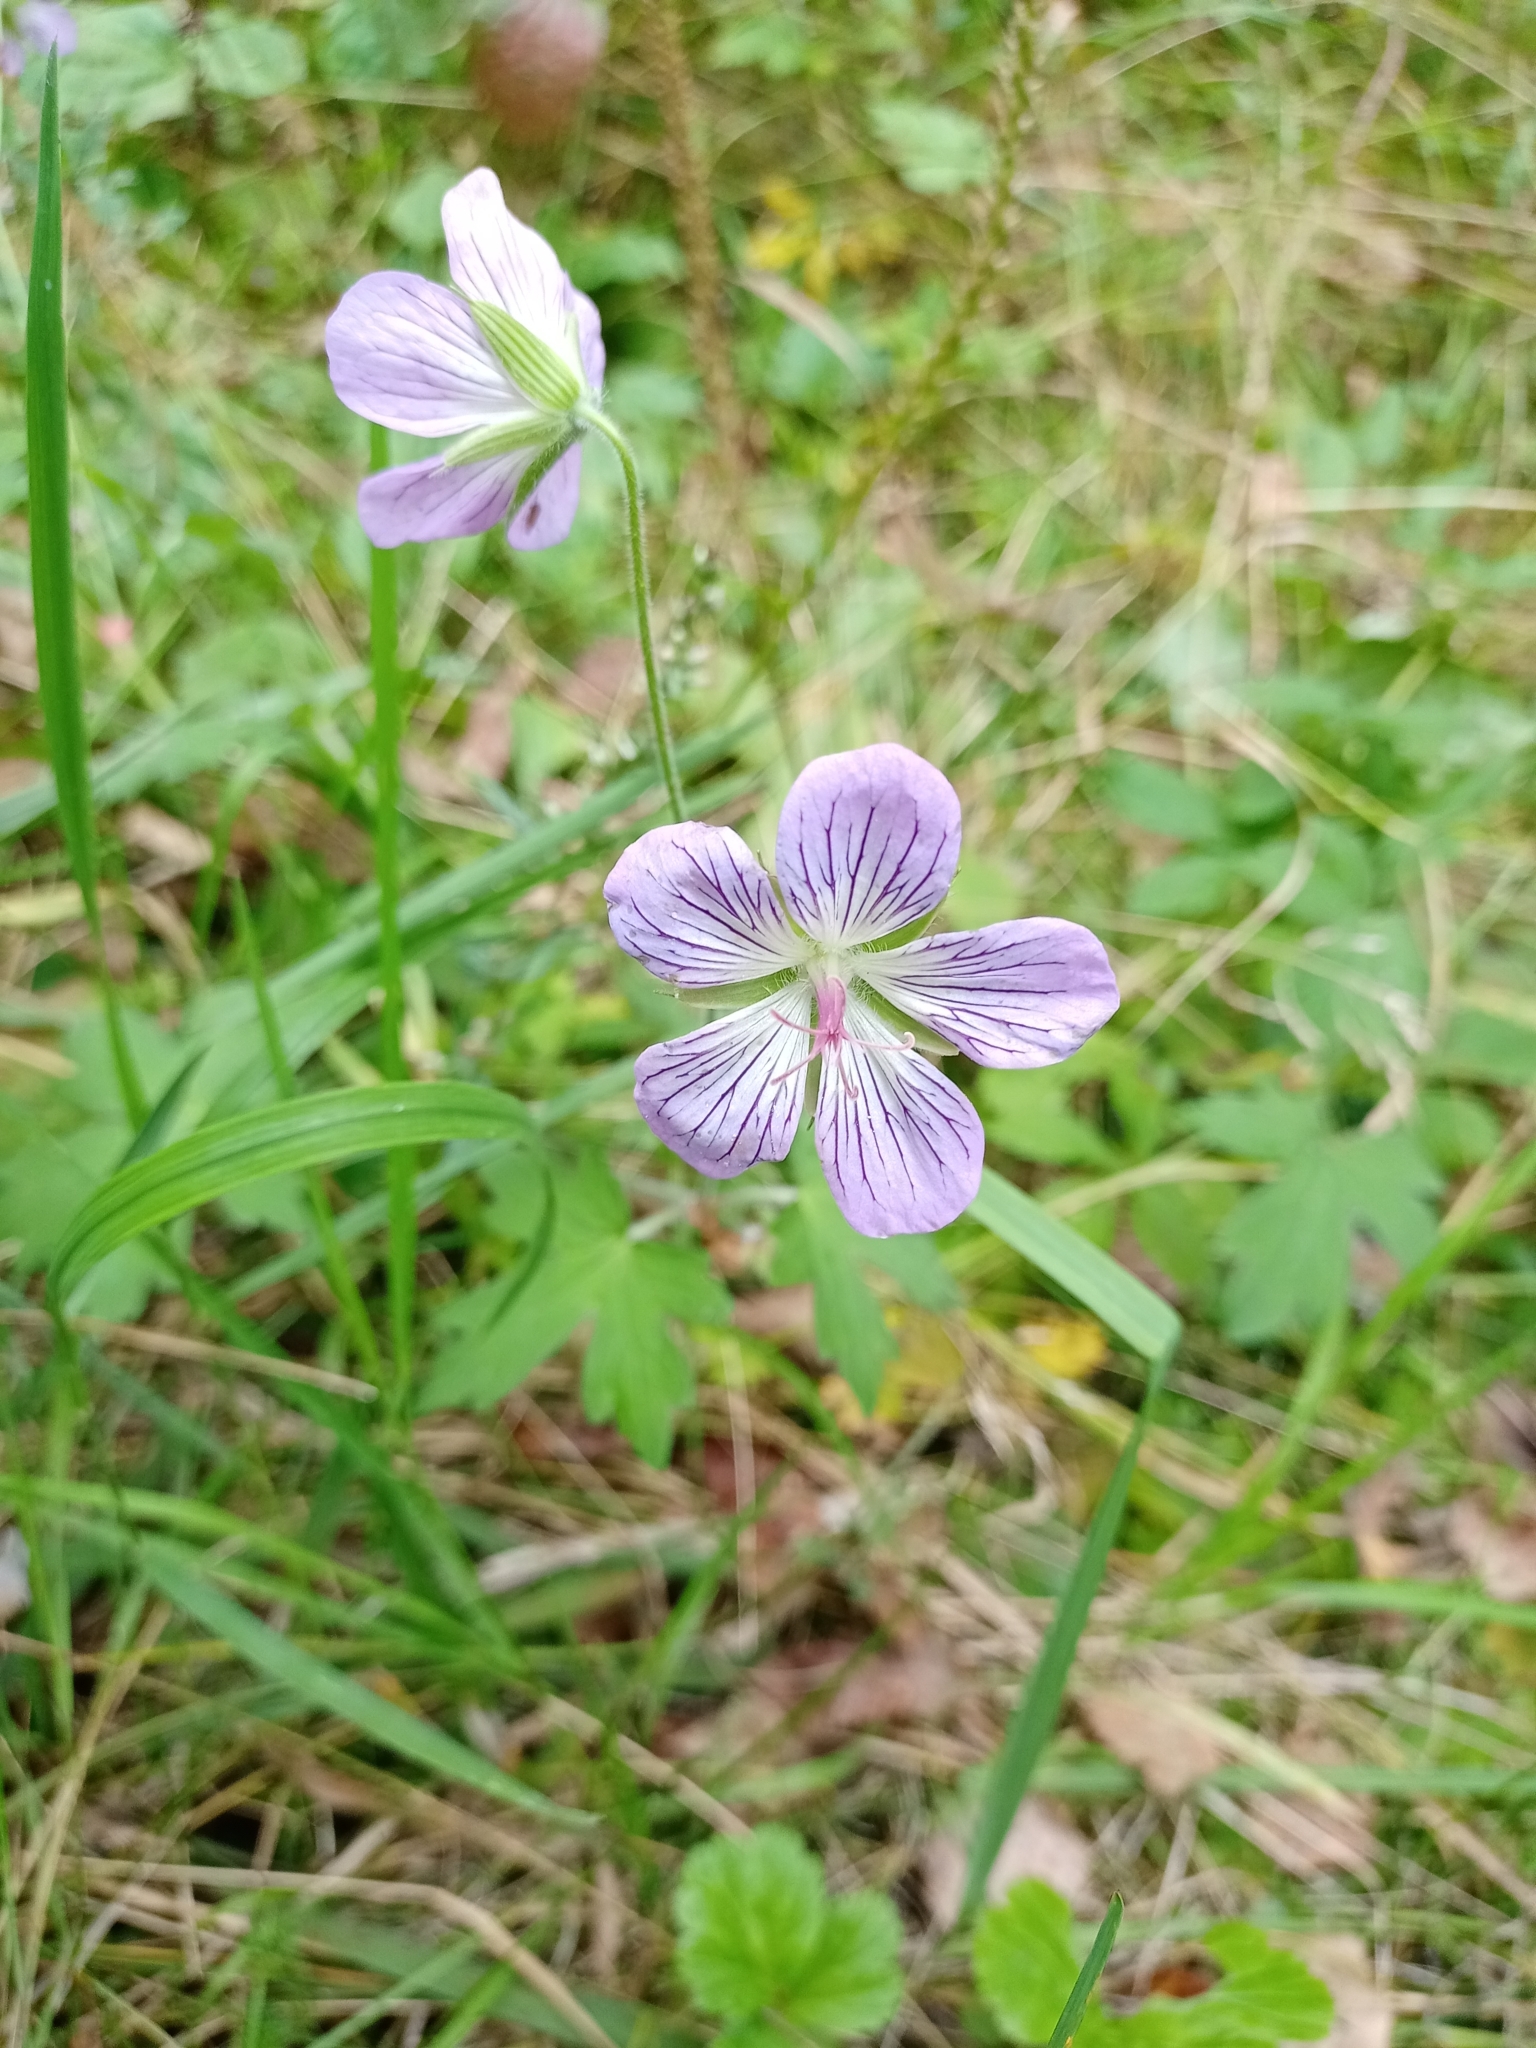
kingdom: Plantae
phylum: Tracheophyta
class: Magnoliopsida
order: Geraniales
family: Geraniaceae
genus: Geranium
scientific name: Geranium wlassovianum
